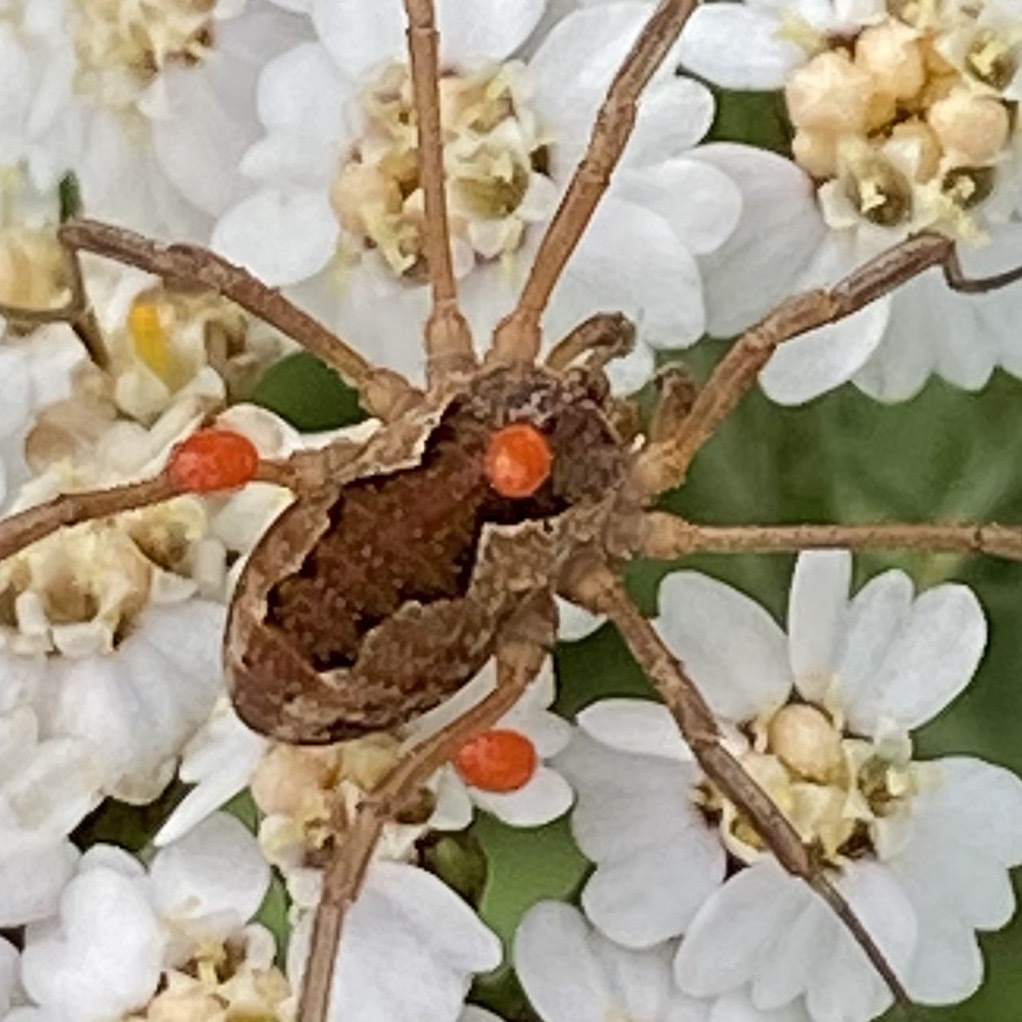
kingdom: Animalia
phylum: Arthropoda
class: Arachnida
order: Opiliones
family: Phalangiidae
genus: Mitopus
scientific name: Mitopus morio
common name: Saddleback harvestman
